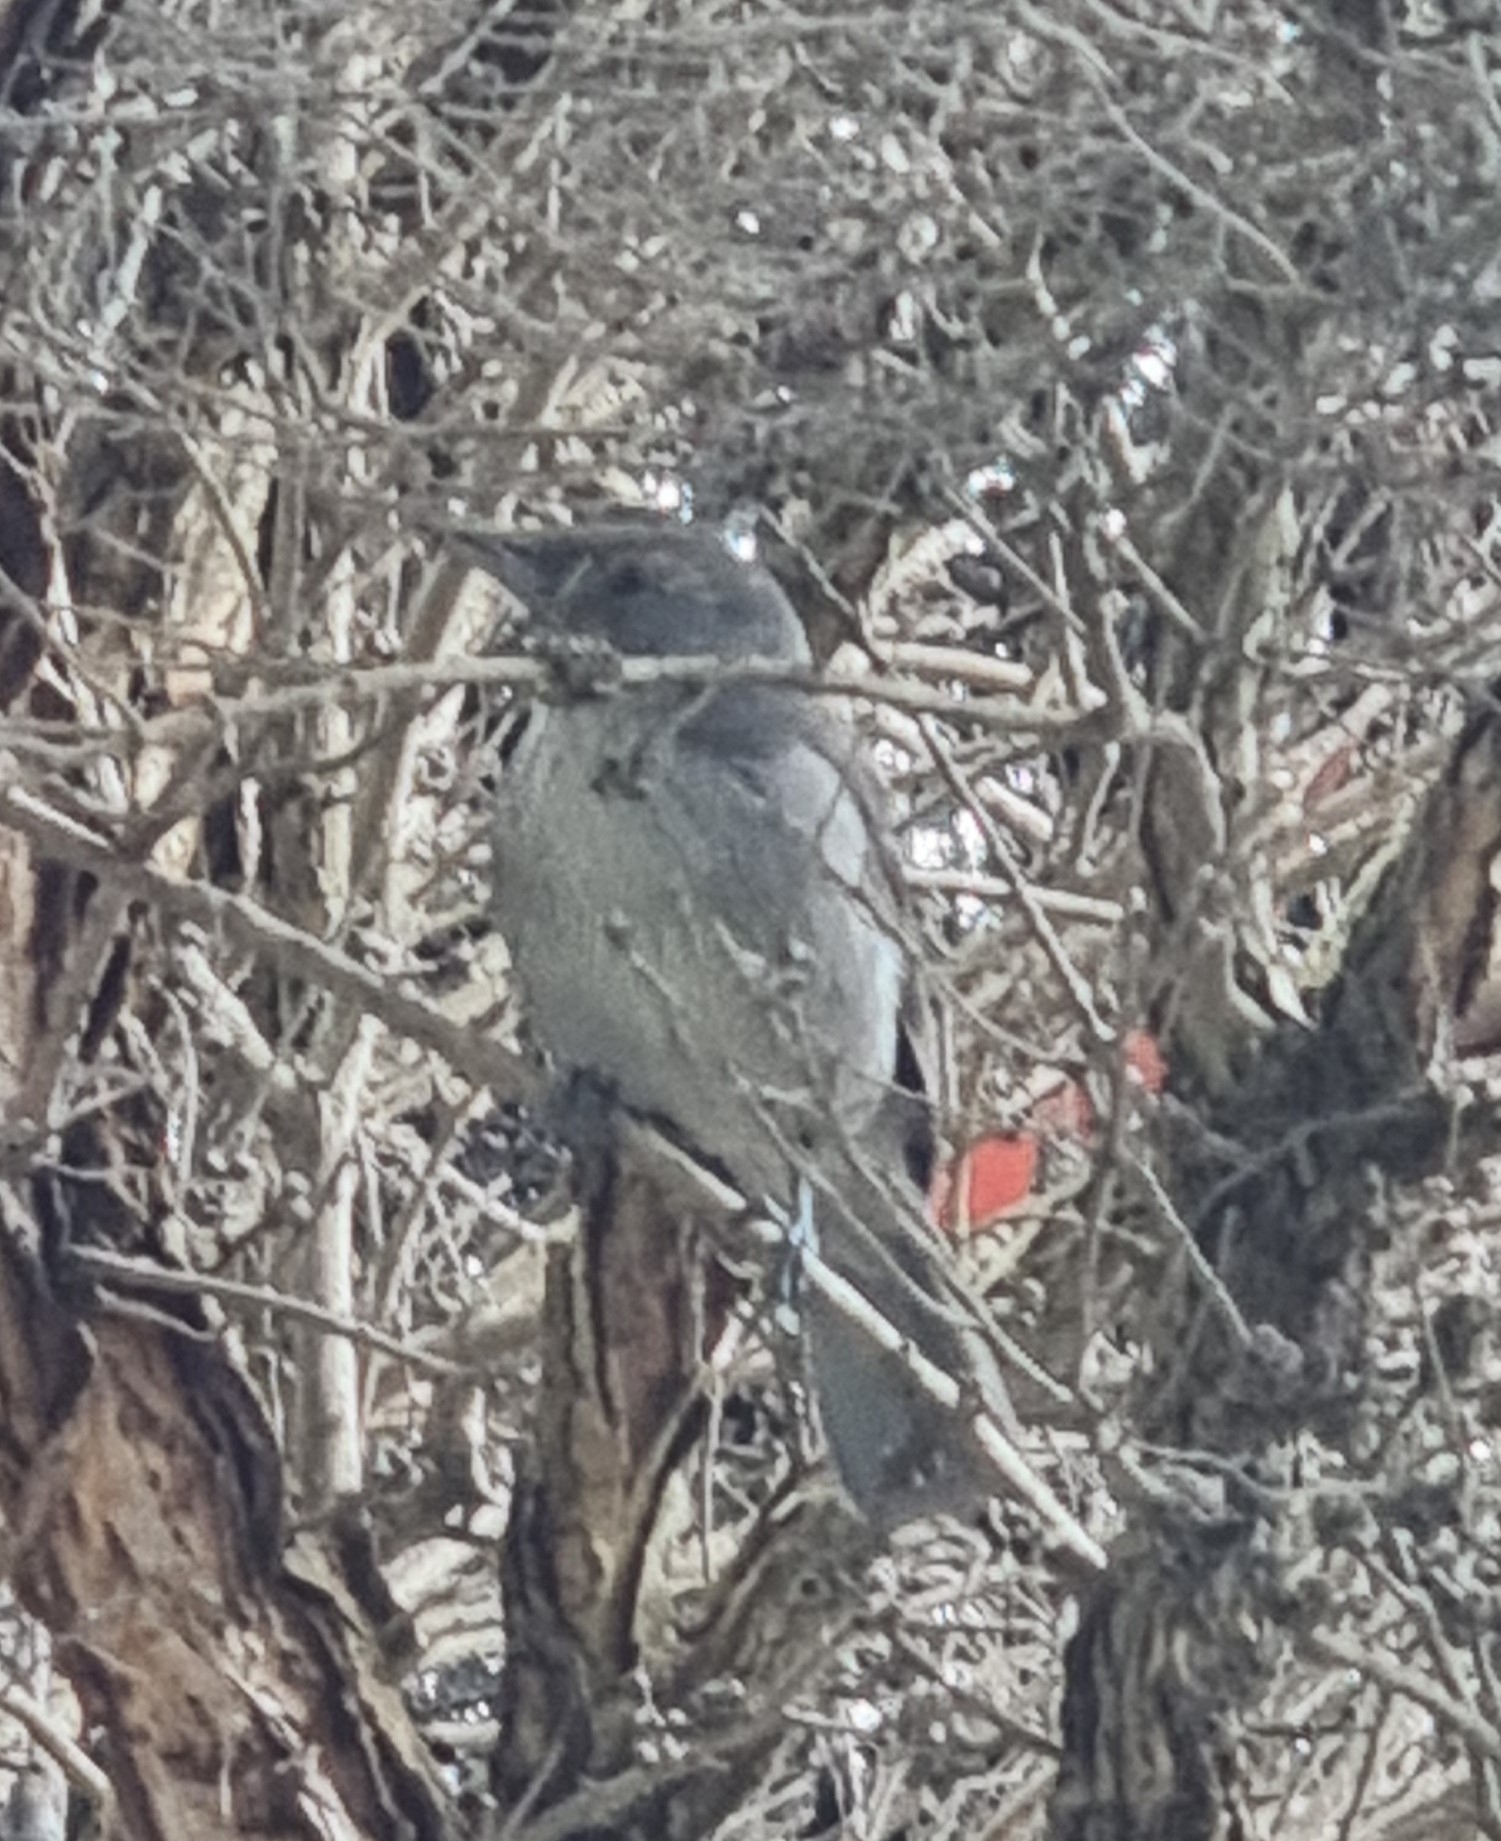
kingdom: Animalia
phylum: Chordata
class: Aves
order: Passeriformes
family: Pachycephalidae
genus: Colluricincla
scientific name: Colluricincla harmonica
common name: Grey shrikethrush
